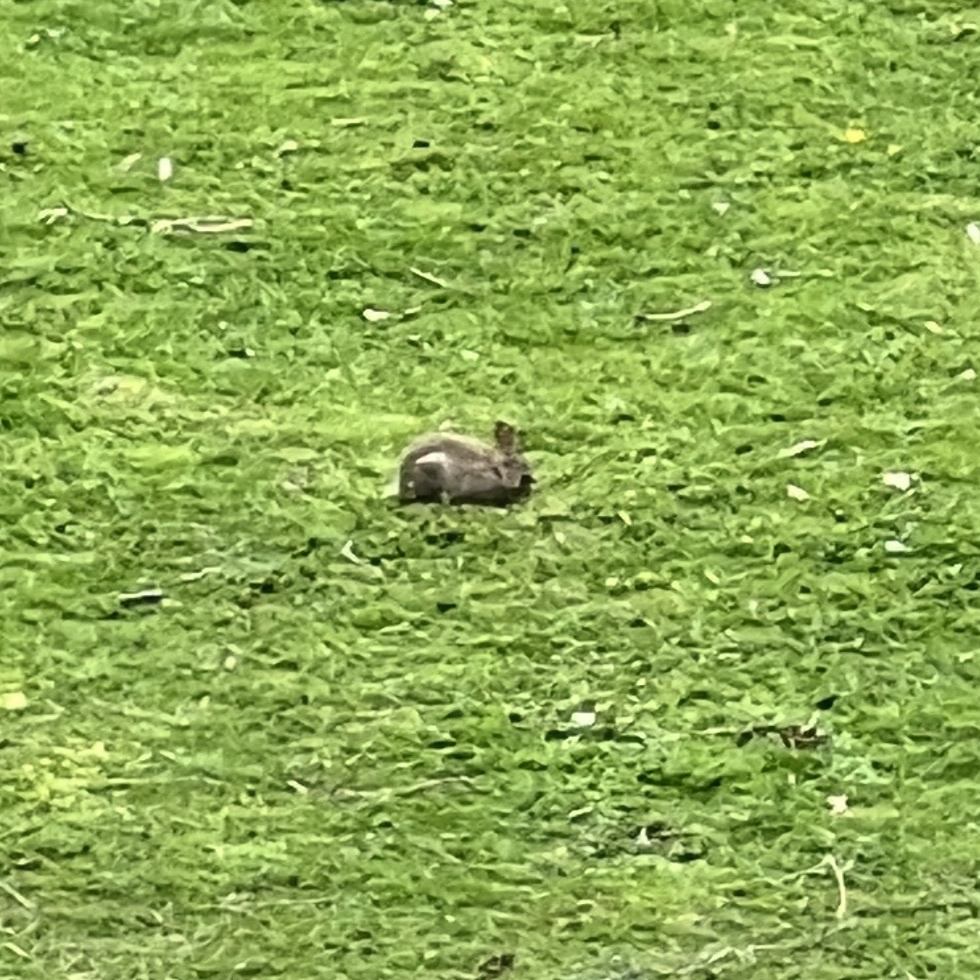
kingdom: Animalia
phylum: Chordata
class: Mammalia
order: Lagomorpha
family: Leporidae
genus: Oryctolagus
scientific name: Oryctolagus cuniculus
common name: European rabbit
